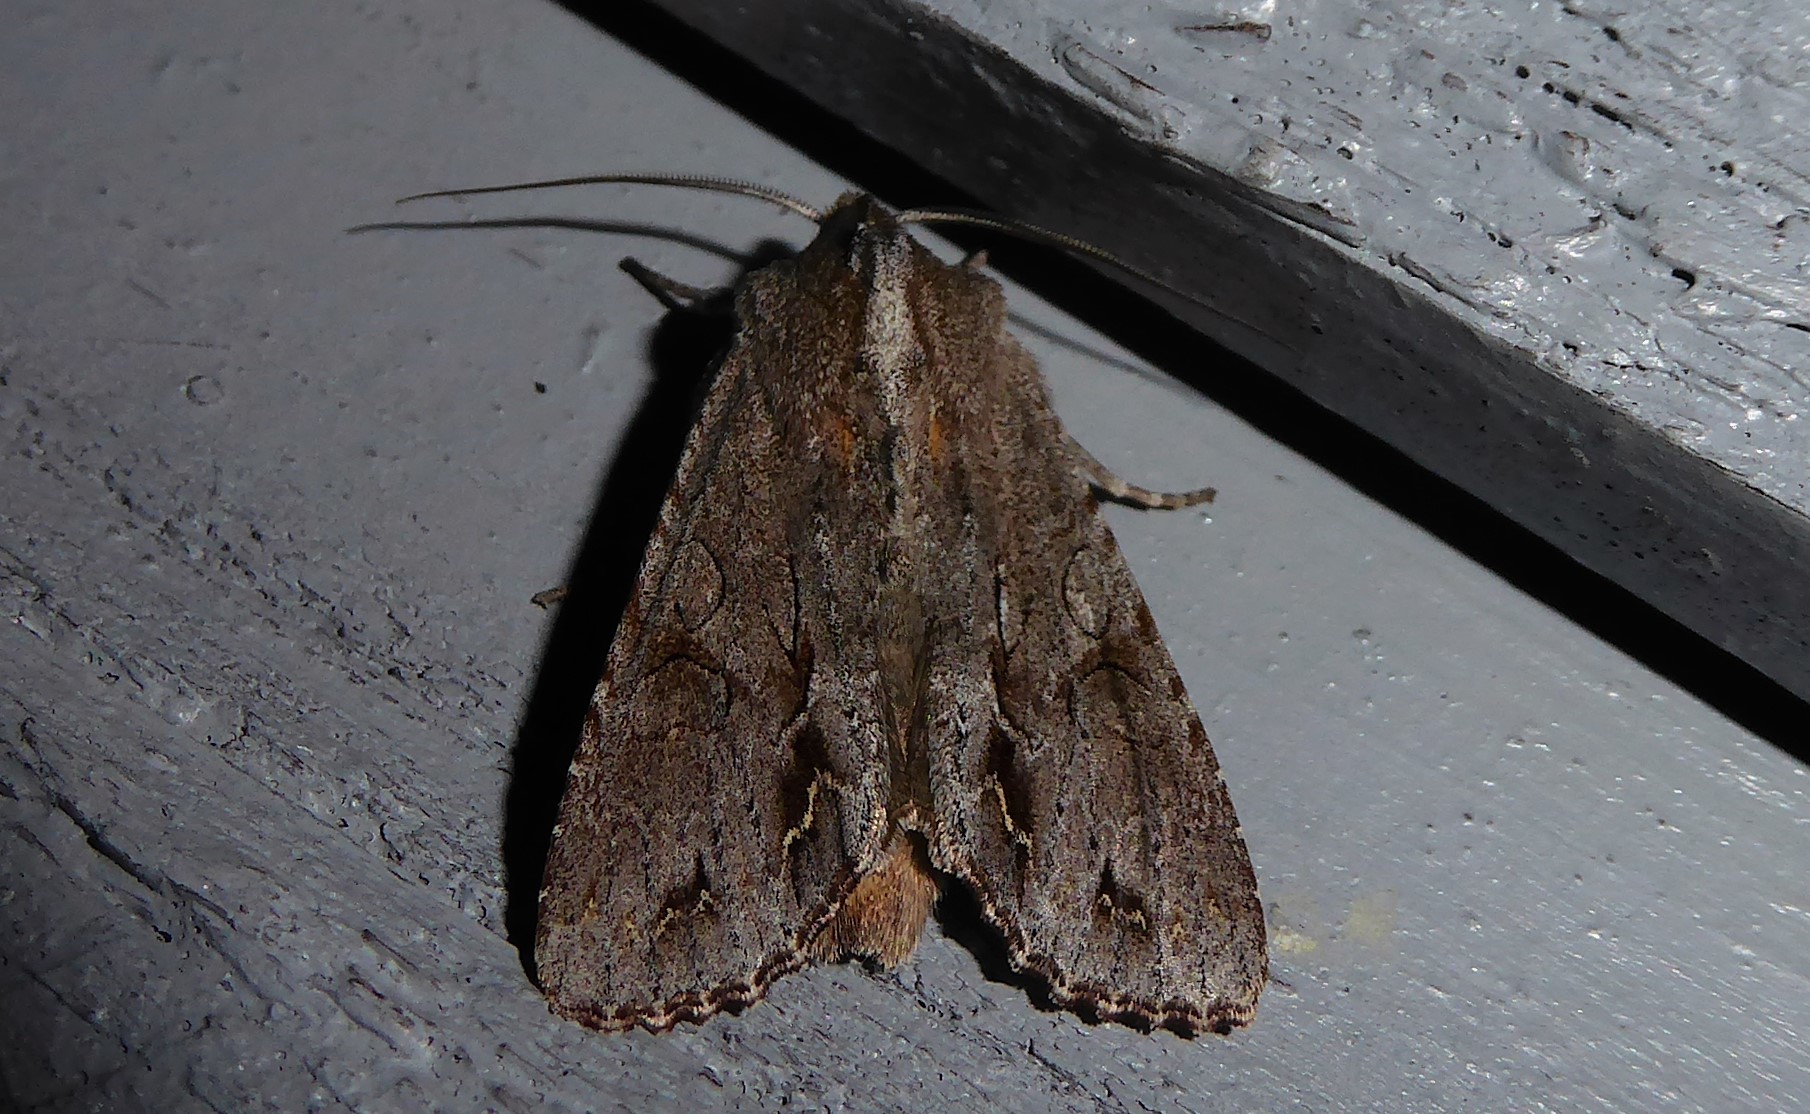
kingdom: Animalia
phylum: Arthropoda
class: Insecta
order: Lepidoptera
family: Noctuidae
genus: Ichneutica
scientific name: Ichneutica
